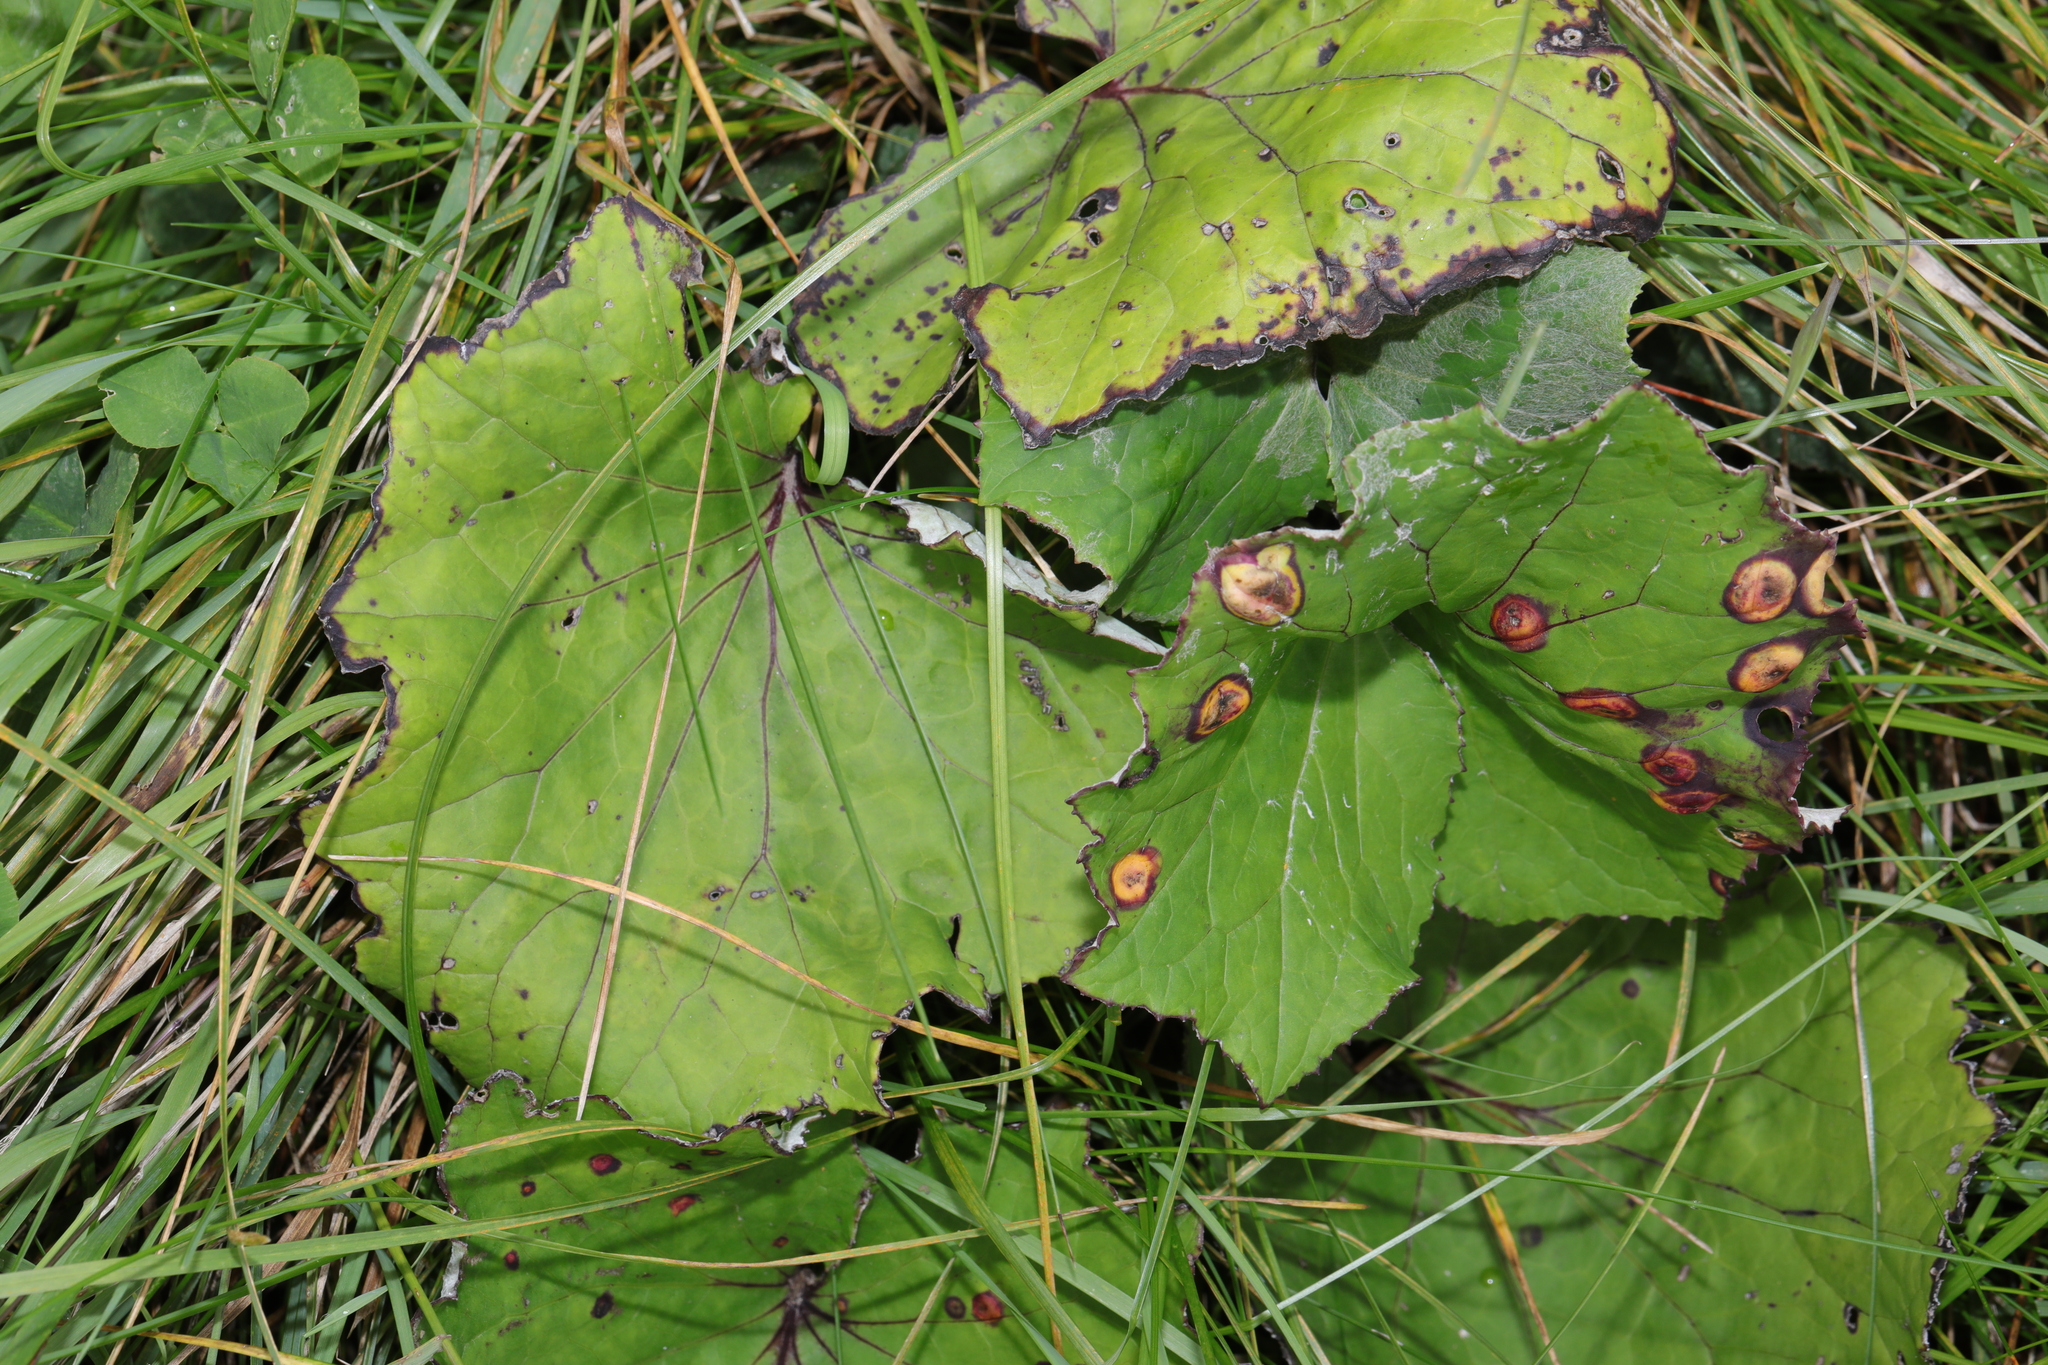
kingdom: Plantae
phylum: Tracheophyta
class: Magnoliopsida
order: Asterales
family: Asteraceae
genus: Tussilago
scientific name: Tussilago farfara
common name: Coltsfoot
